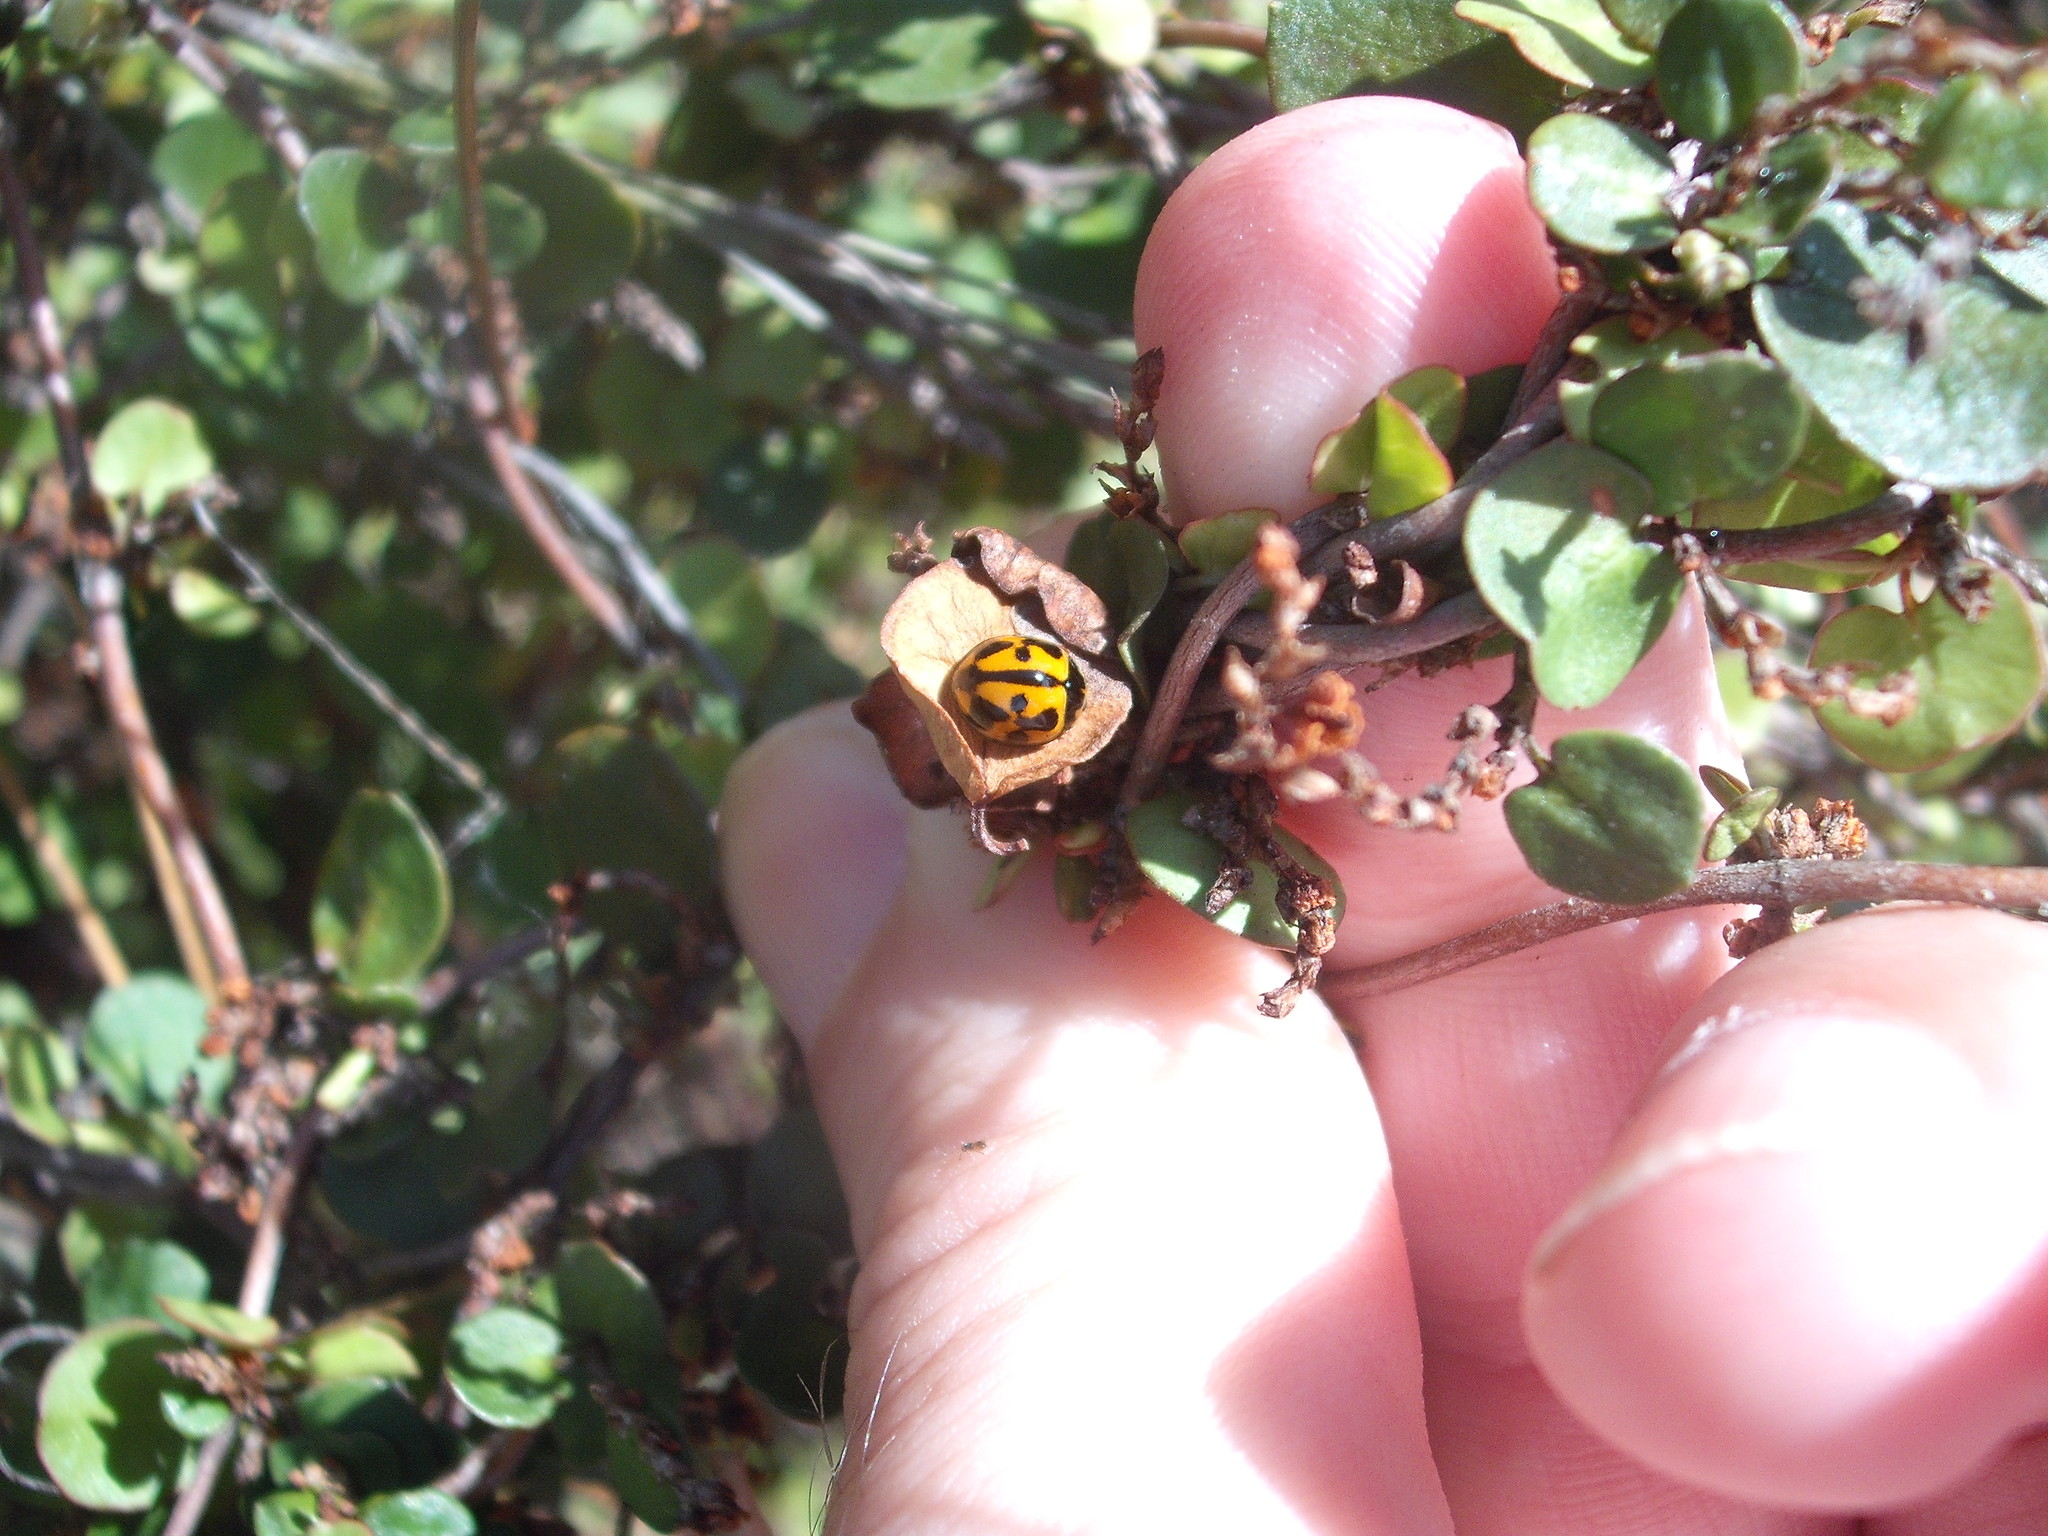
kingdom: Animalia
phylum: Arthropoda
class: Insecta
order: Coleoptera
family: Coccinellidae
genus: Coelophora
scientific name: Coelophora inaequalis
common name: Common australian lady beetle
